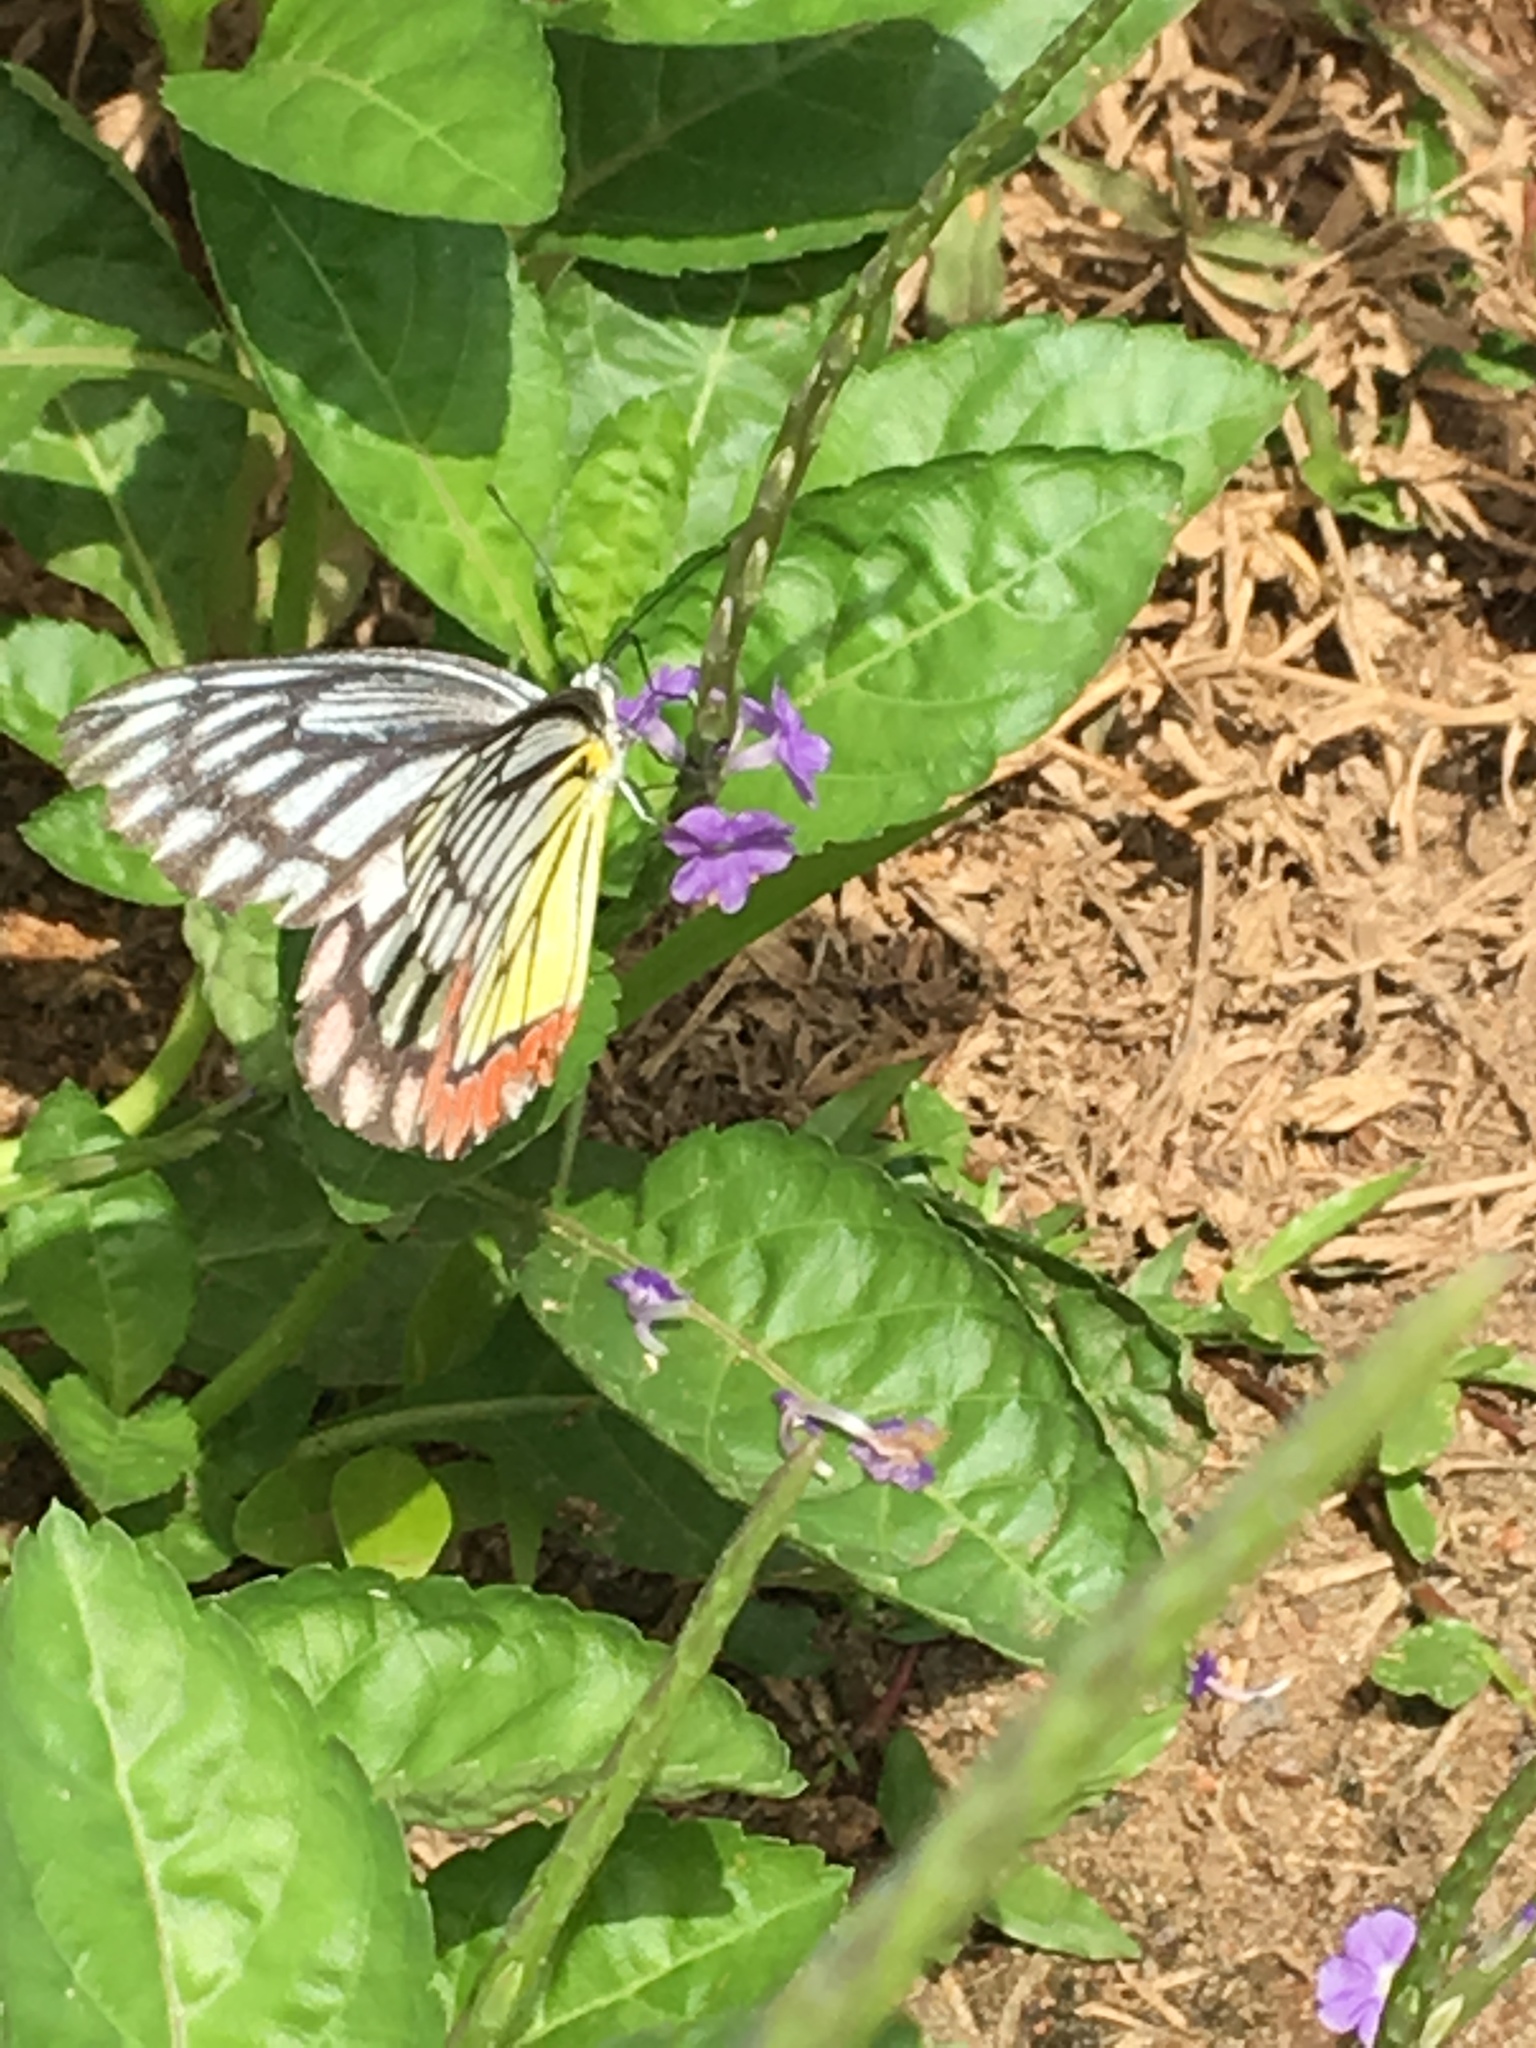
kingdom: Animalia
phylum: Arthropoda
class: Insecta
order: Lepidoptera
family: Pieridae
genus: Delias
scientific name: Delias eucharis
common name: Common jezebel
